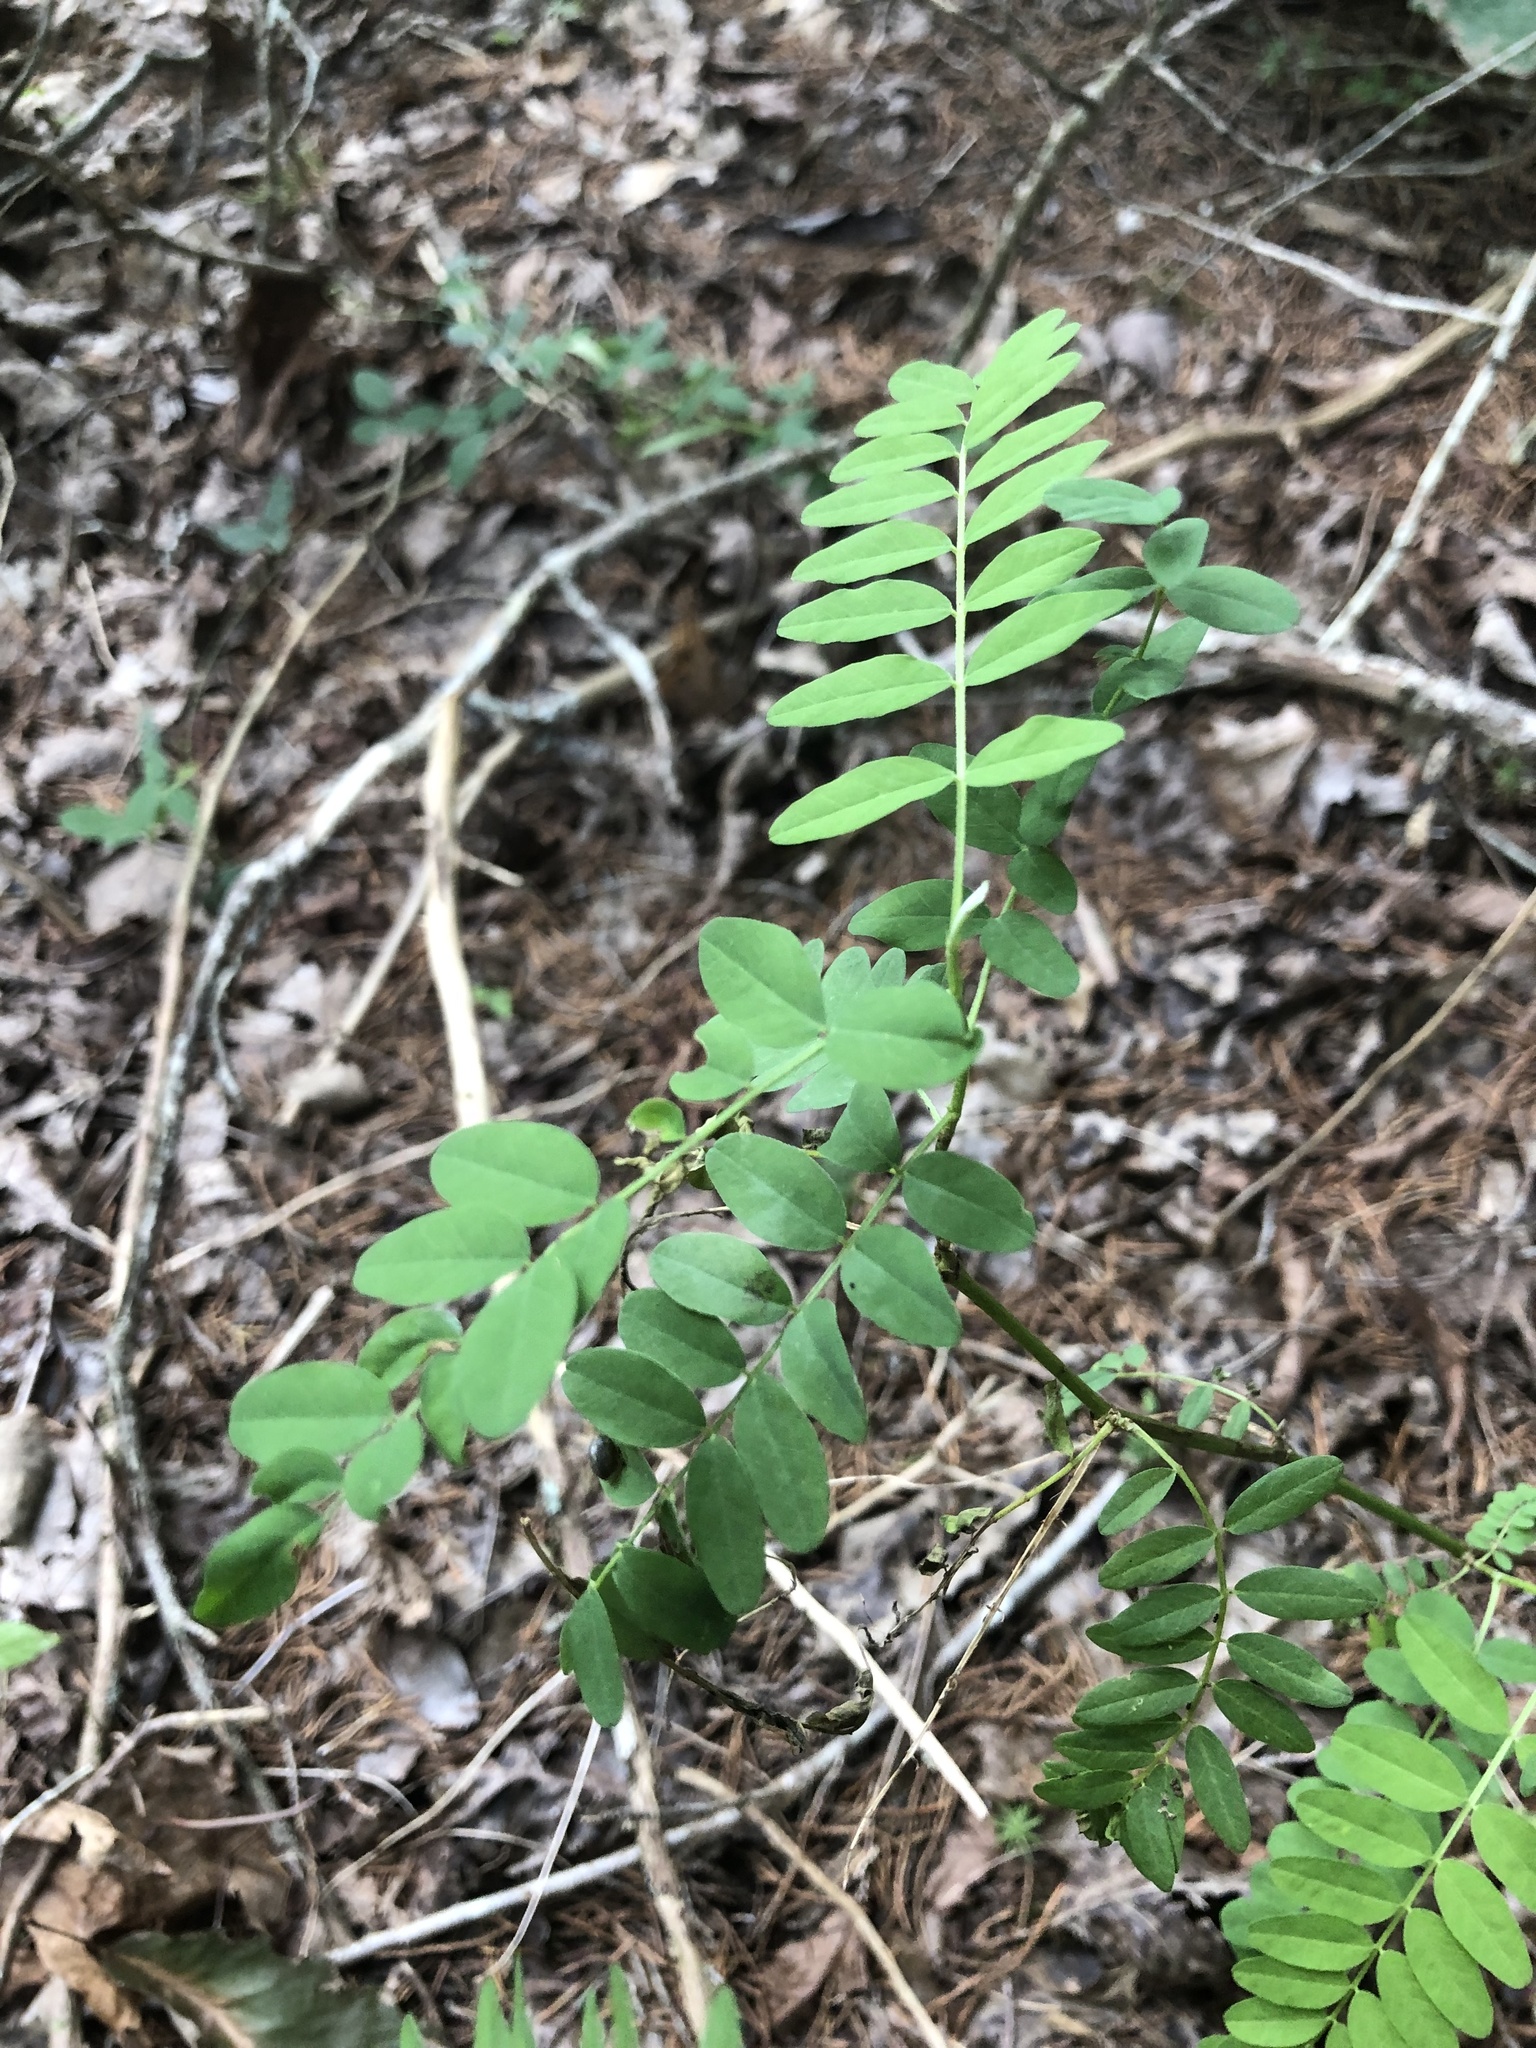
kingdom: Plantae
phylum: Tracheophyta
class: Magnoliopsida
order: Fabales
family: Fabaceae
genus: Astragalus
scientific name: Astragalus canadensis
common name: Canada milk-vetch
